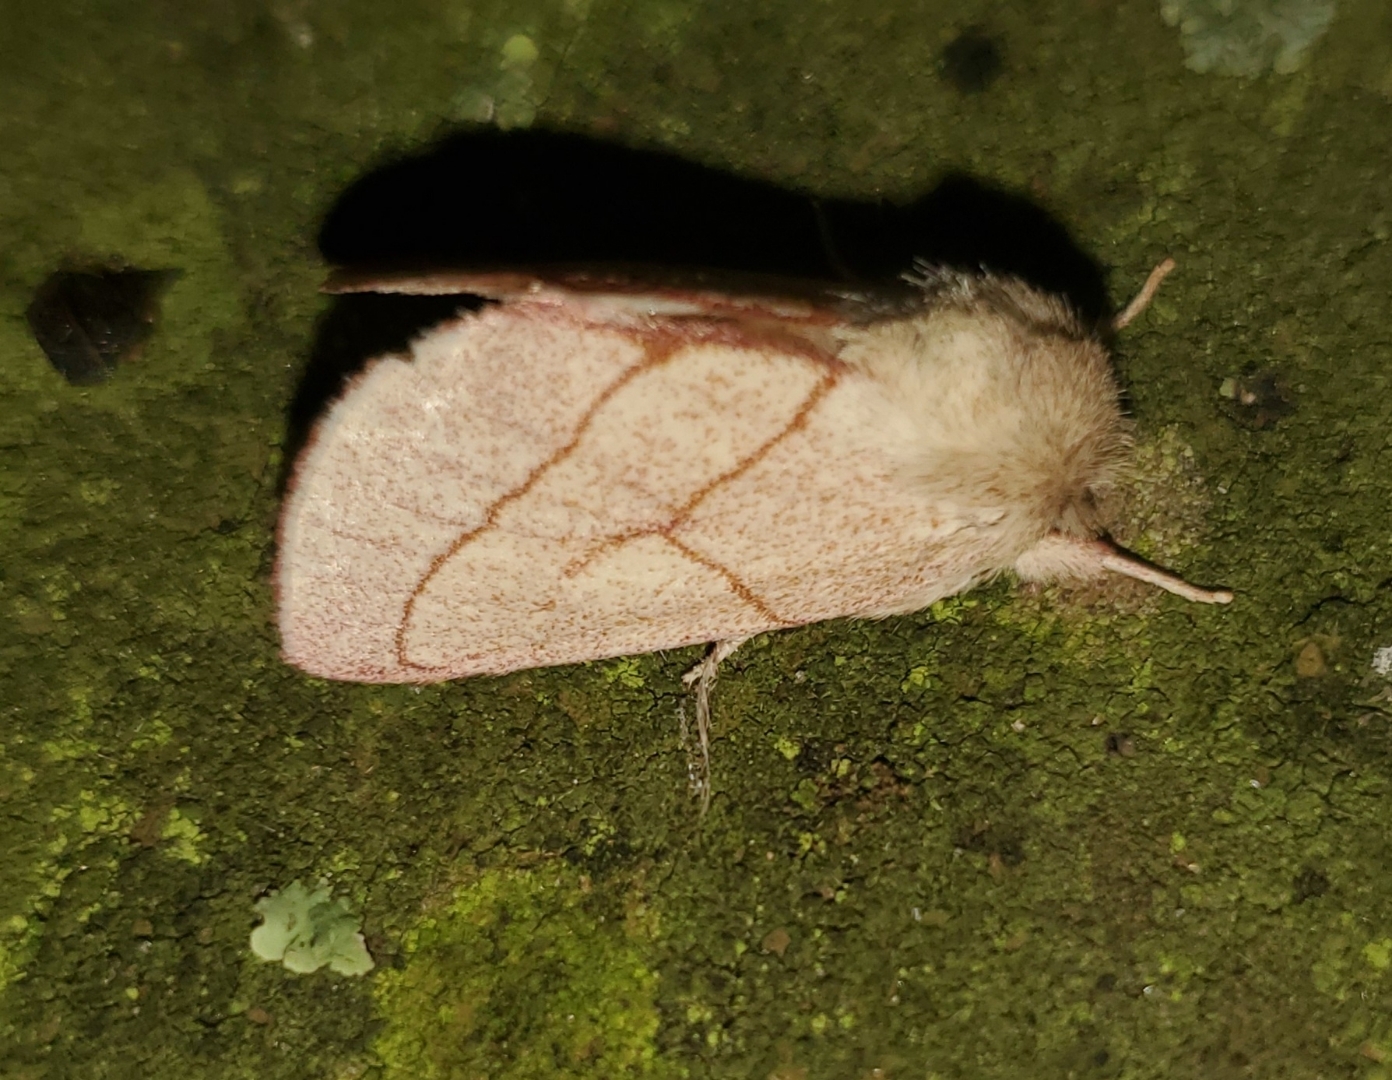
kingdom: Animalia
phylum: Arthropoda
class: Insecta
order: Lepidoptera
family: Notodontidae
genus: Hyparpax
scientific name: Hyparpax perophoroides
